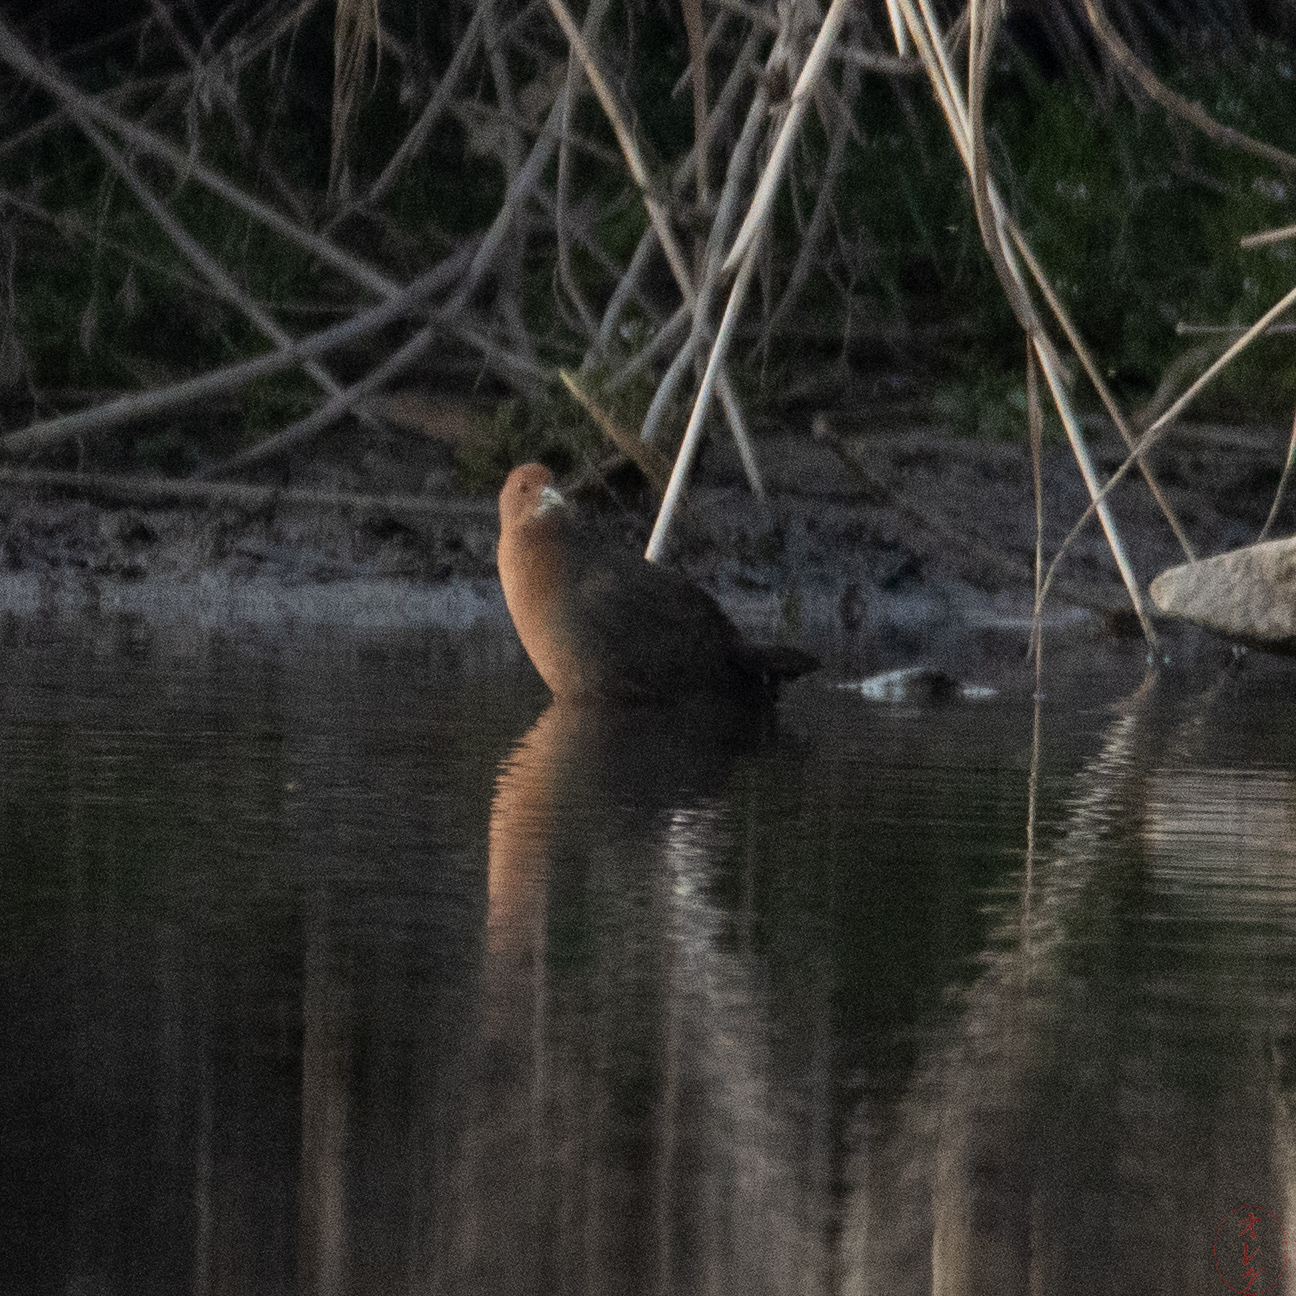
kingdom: Animalia
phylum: Chordata
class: Aves
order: Gruiformes
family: Rallidae
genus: Porzana
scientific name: Porzana fusca
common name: Ruddy-breasted crake
